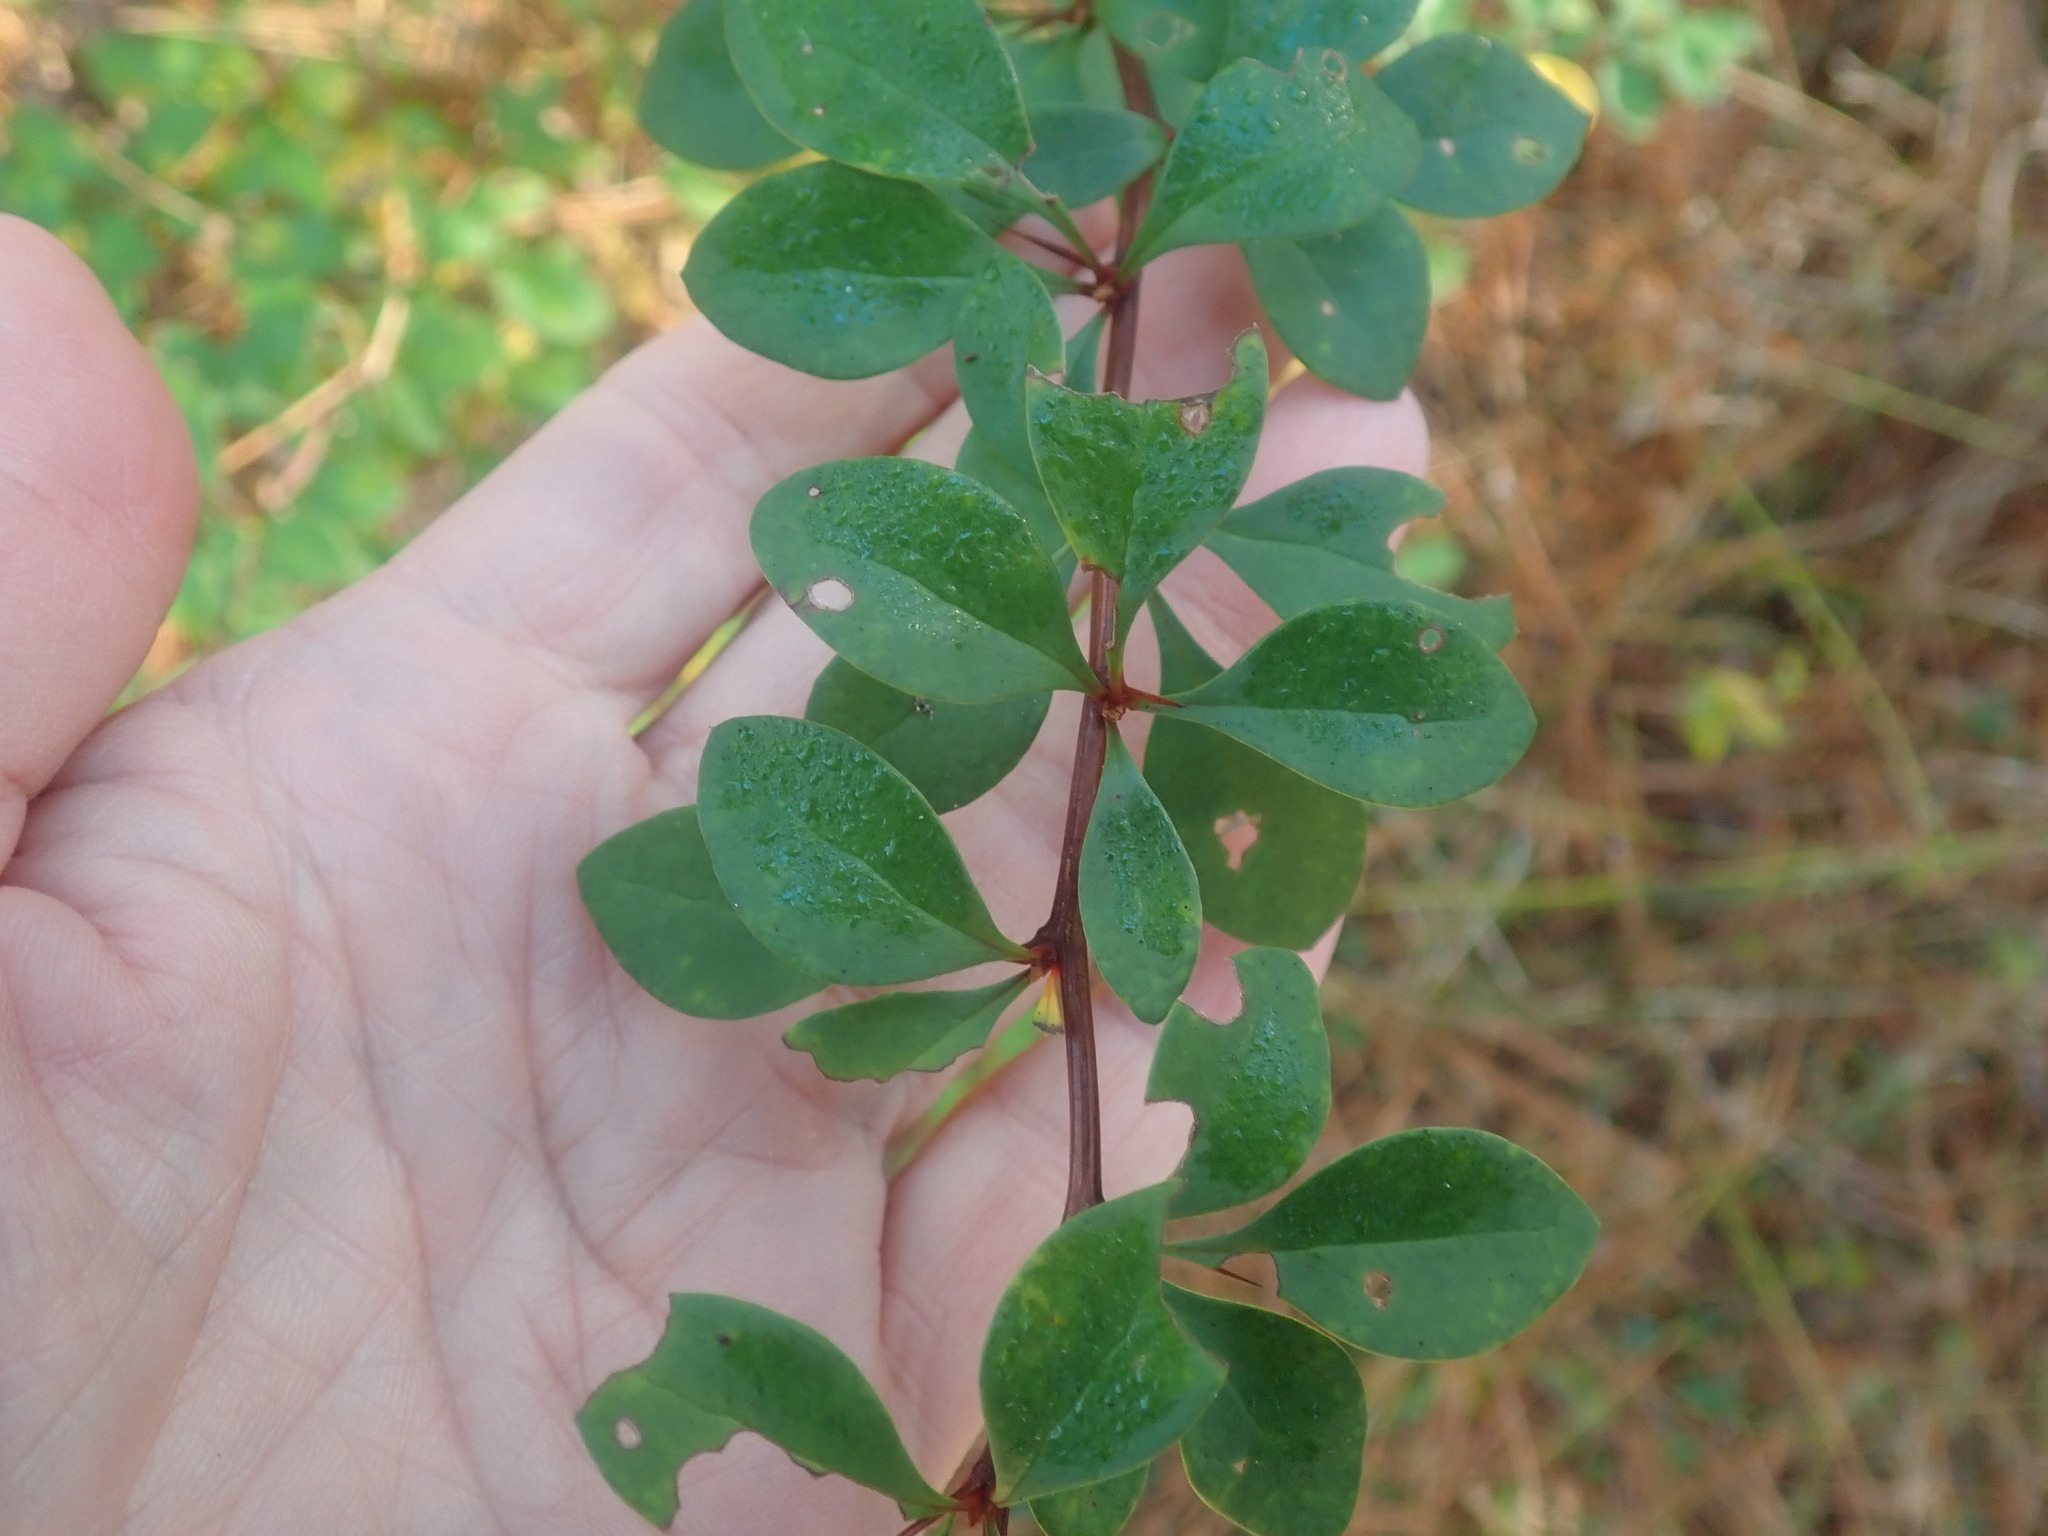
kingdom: Plantae
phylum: Tracheophyta
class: Magnoliopsida
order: Ranunculales
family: Berberidaceae
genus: Berberis
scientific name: Berberis thunbergii
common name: Japanese barberry
